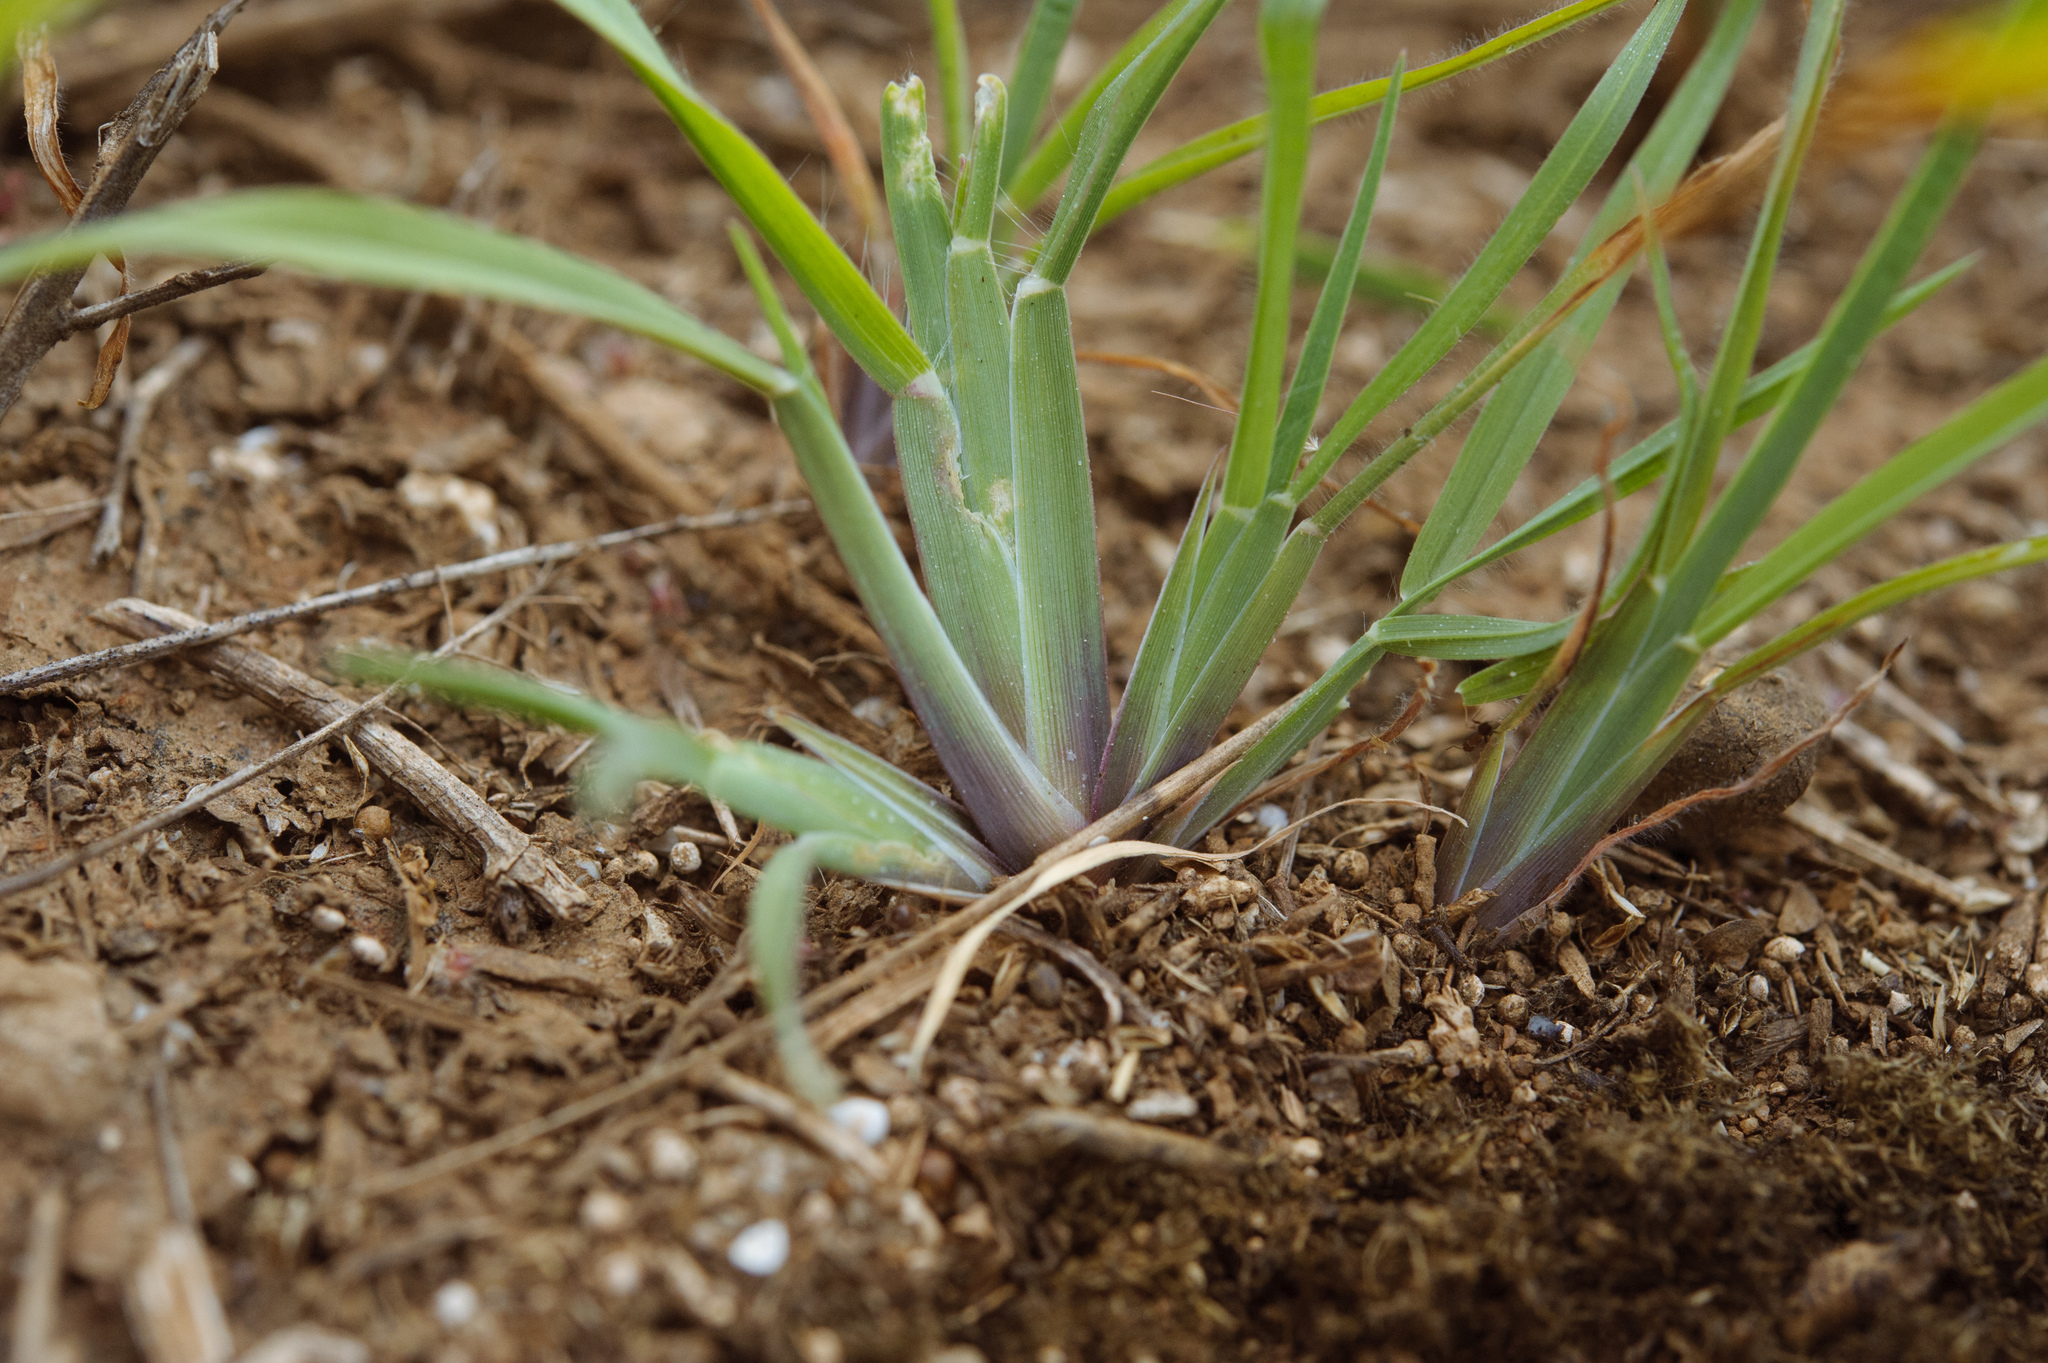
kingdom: Plantae
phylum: Tracheophyta
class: Liliopsida
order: Poales
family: Poaceae
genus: Chloris
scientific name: Chloris barbata
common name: Swollen fingergrass
